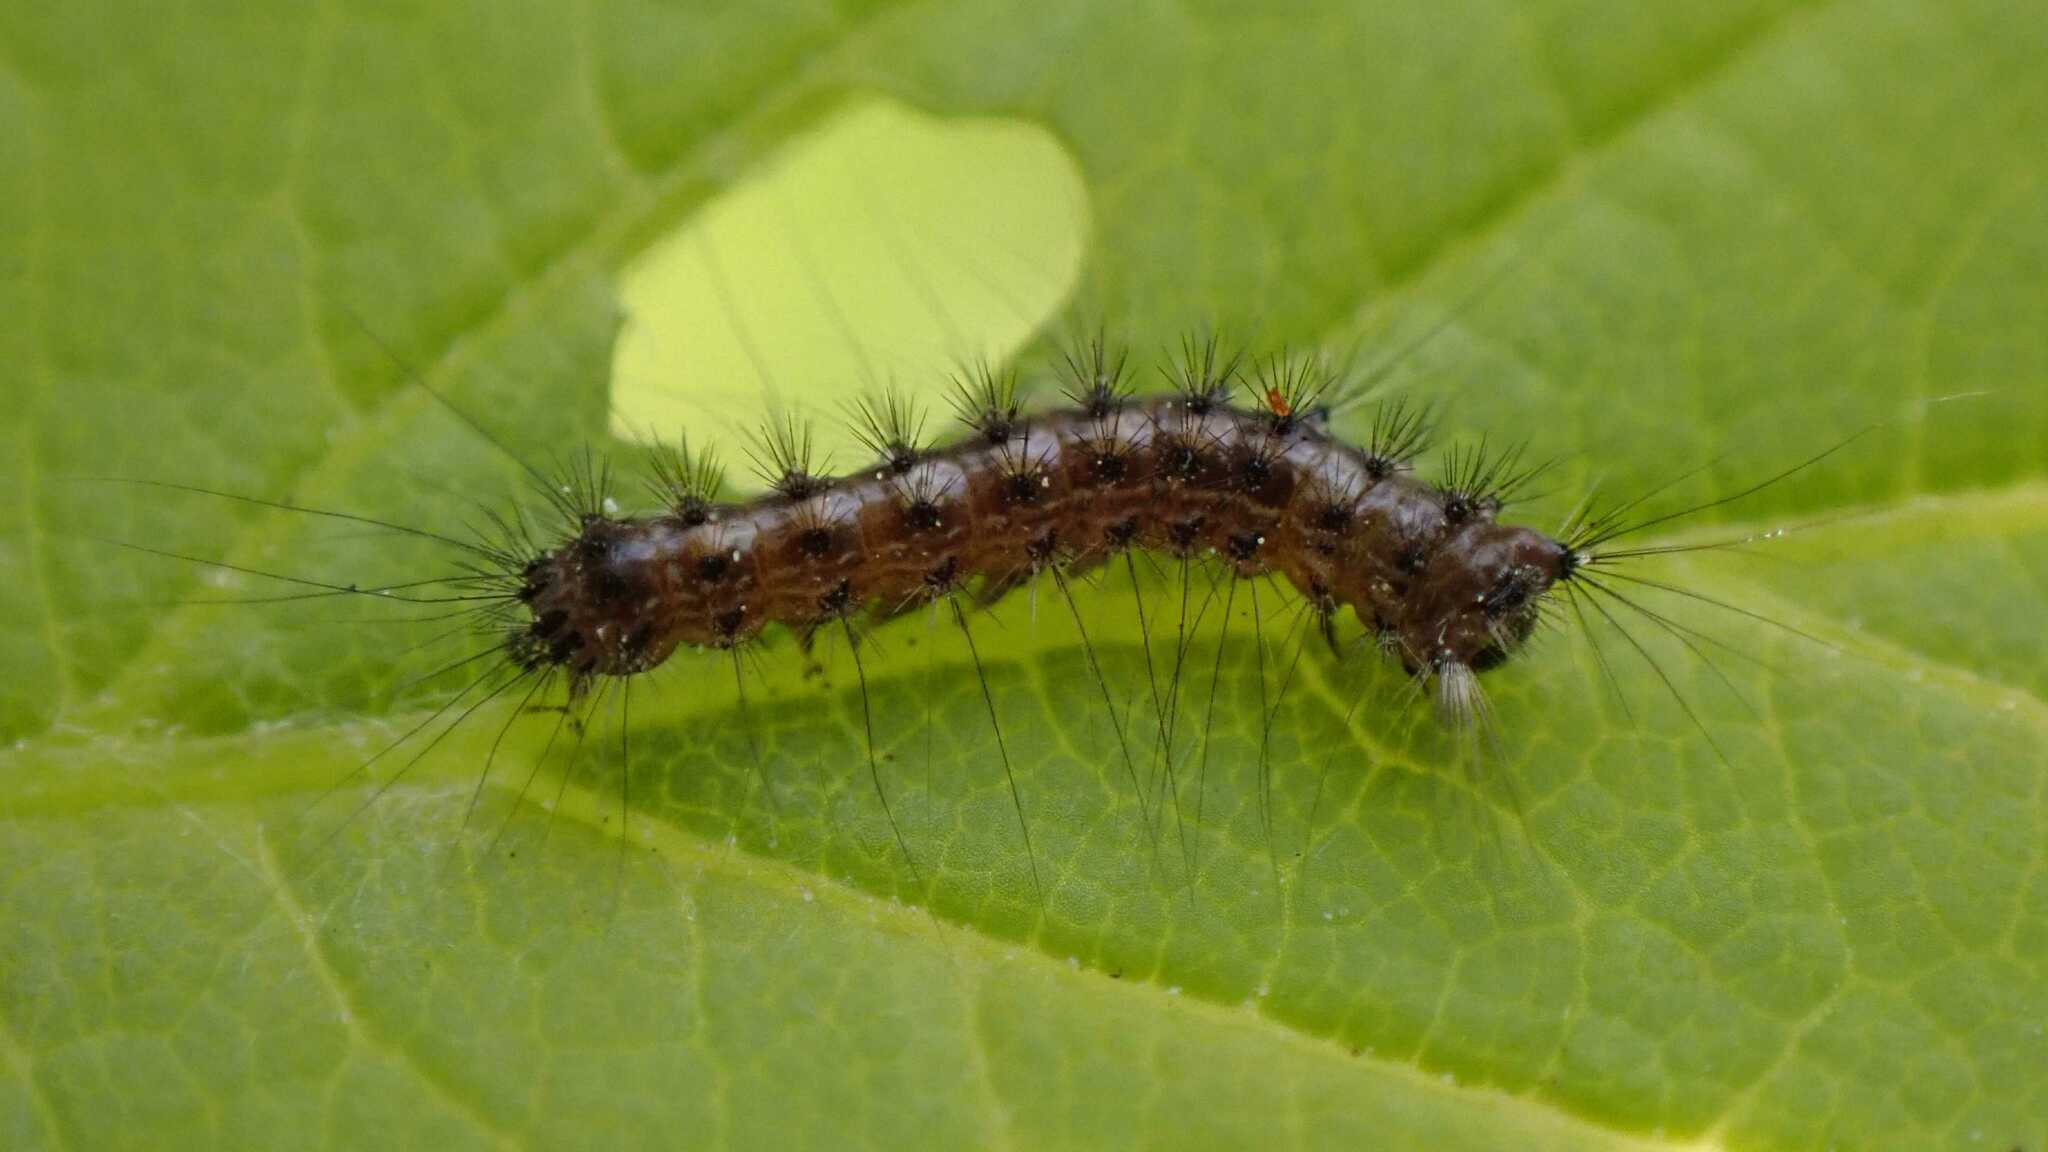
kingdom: Animalia
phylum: Arthropoda
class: Insecta
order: Lepidoptera
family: Erebidae
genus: Lymantria
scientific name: Lymantria dispar
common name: Gypsy moth
